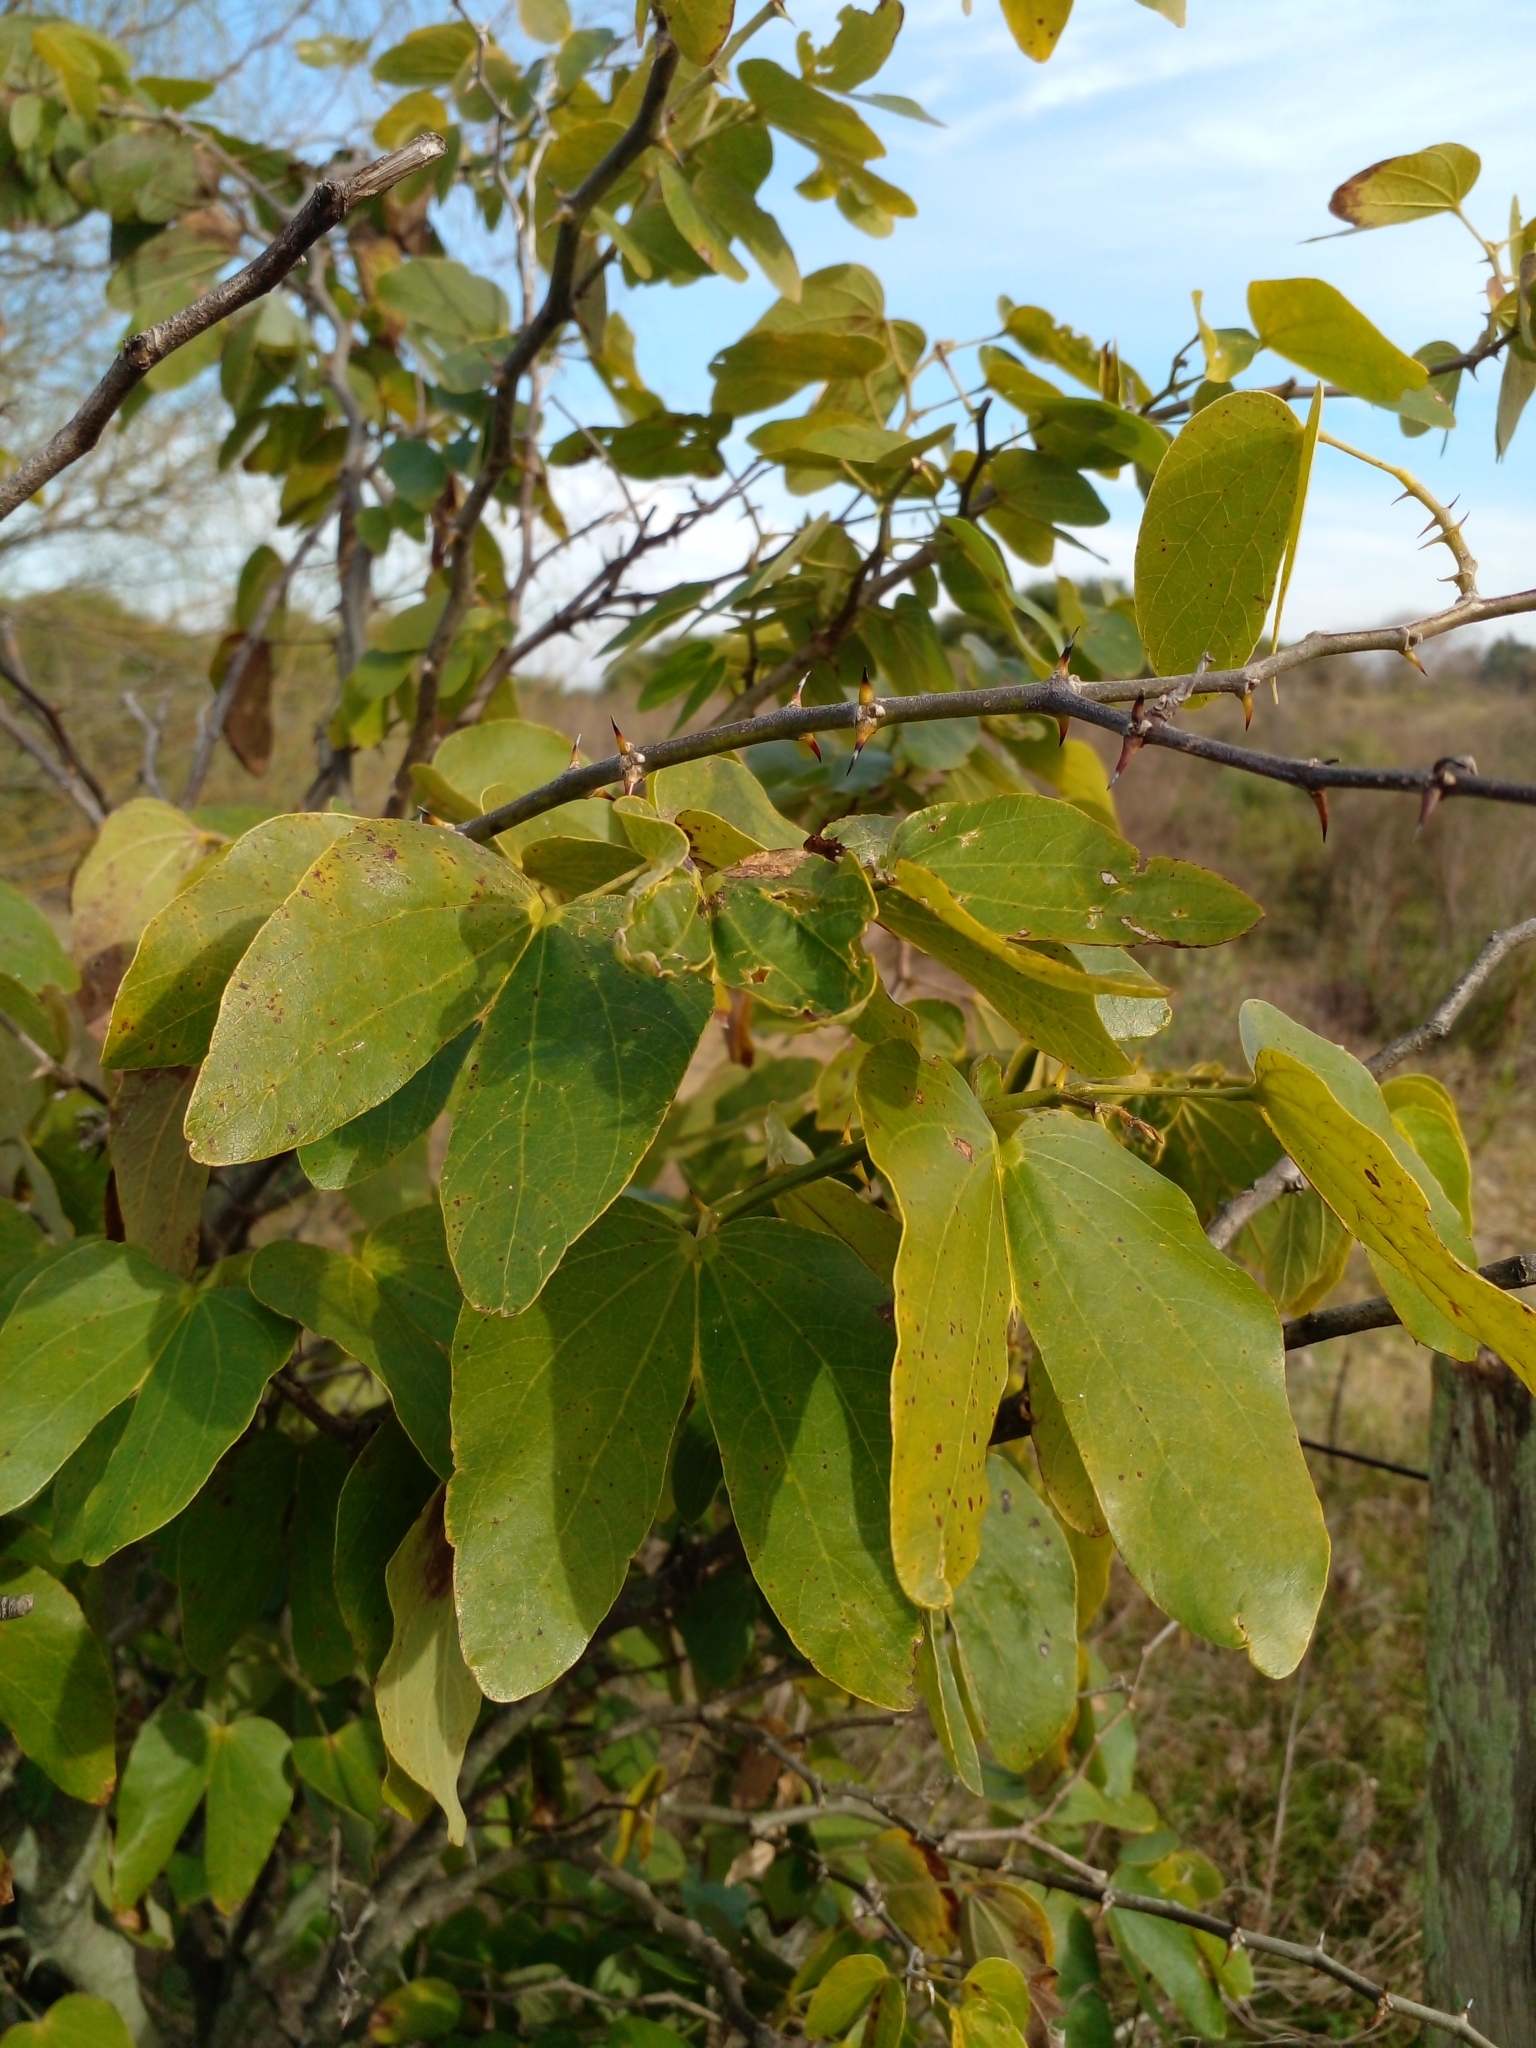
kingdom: Plantae
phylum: Tracheophyta
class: Magnoliopsida
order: Fabales
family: Fabaceae
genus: Bauhinia
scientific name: Bauhinia forficata
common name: Orchid tree
